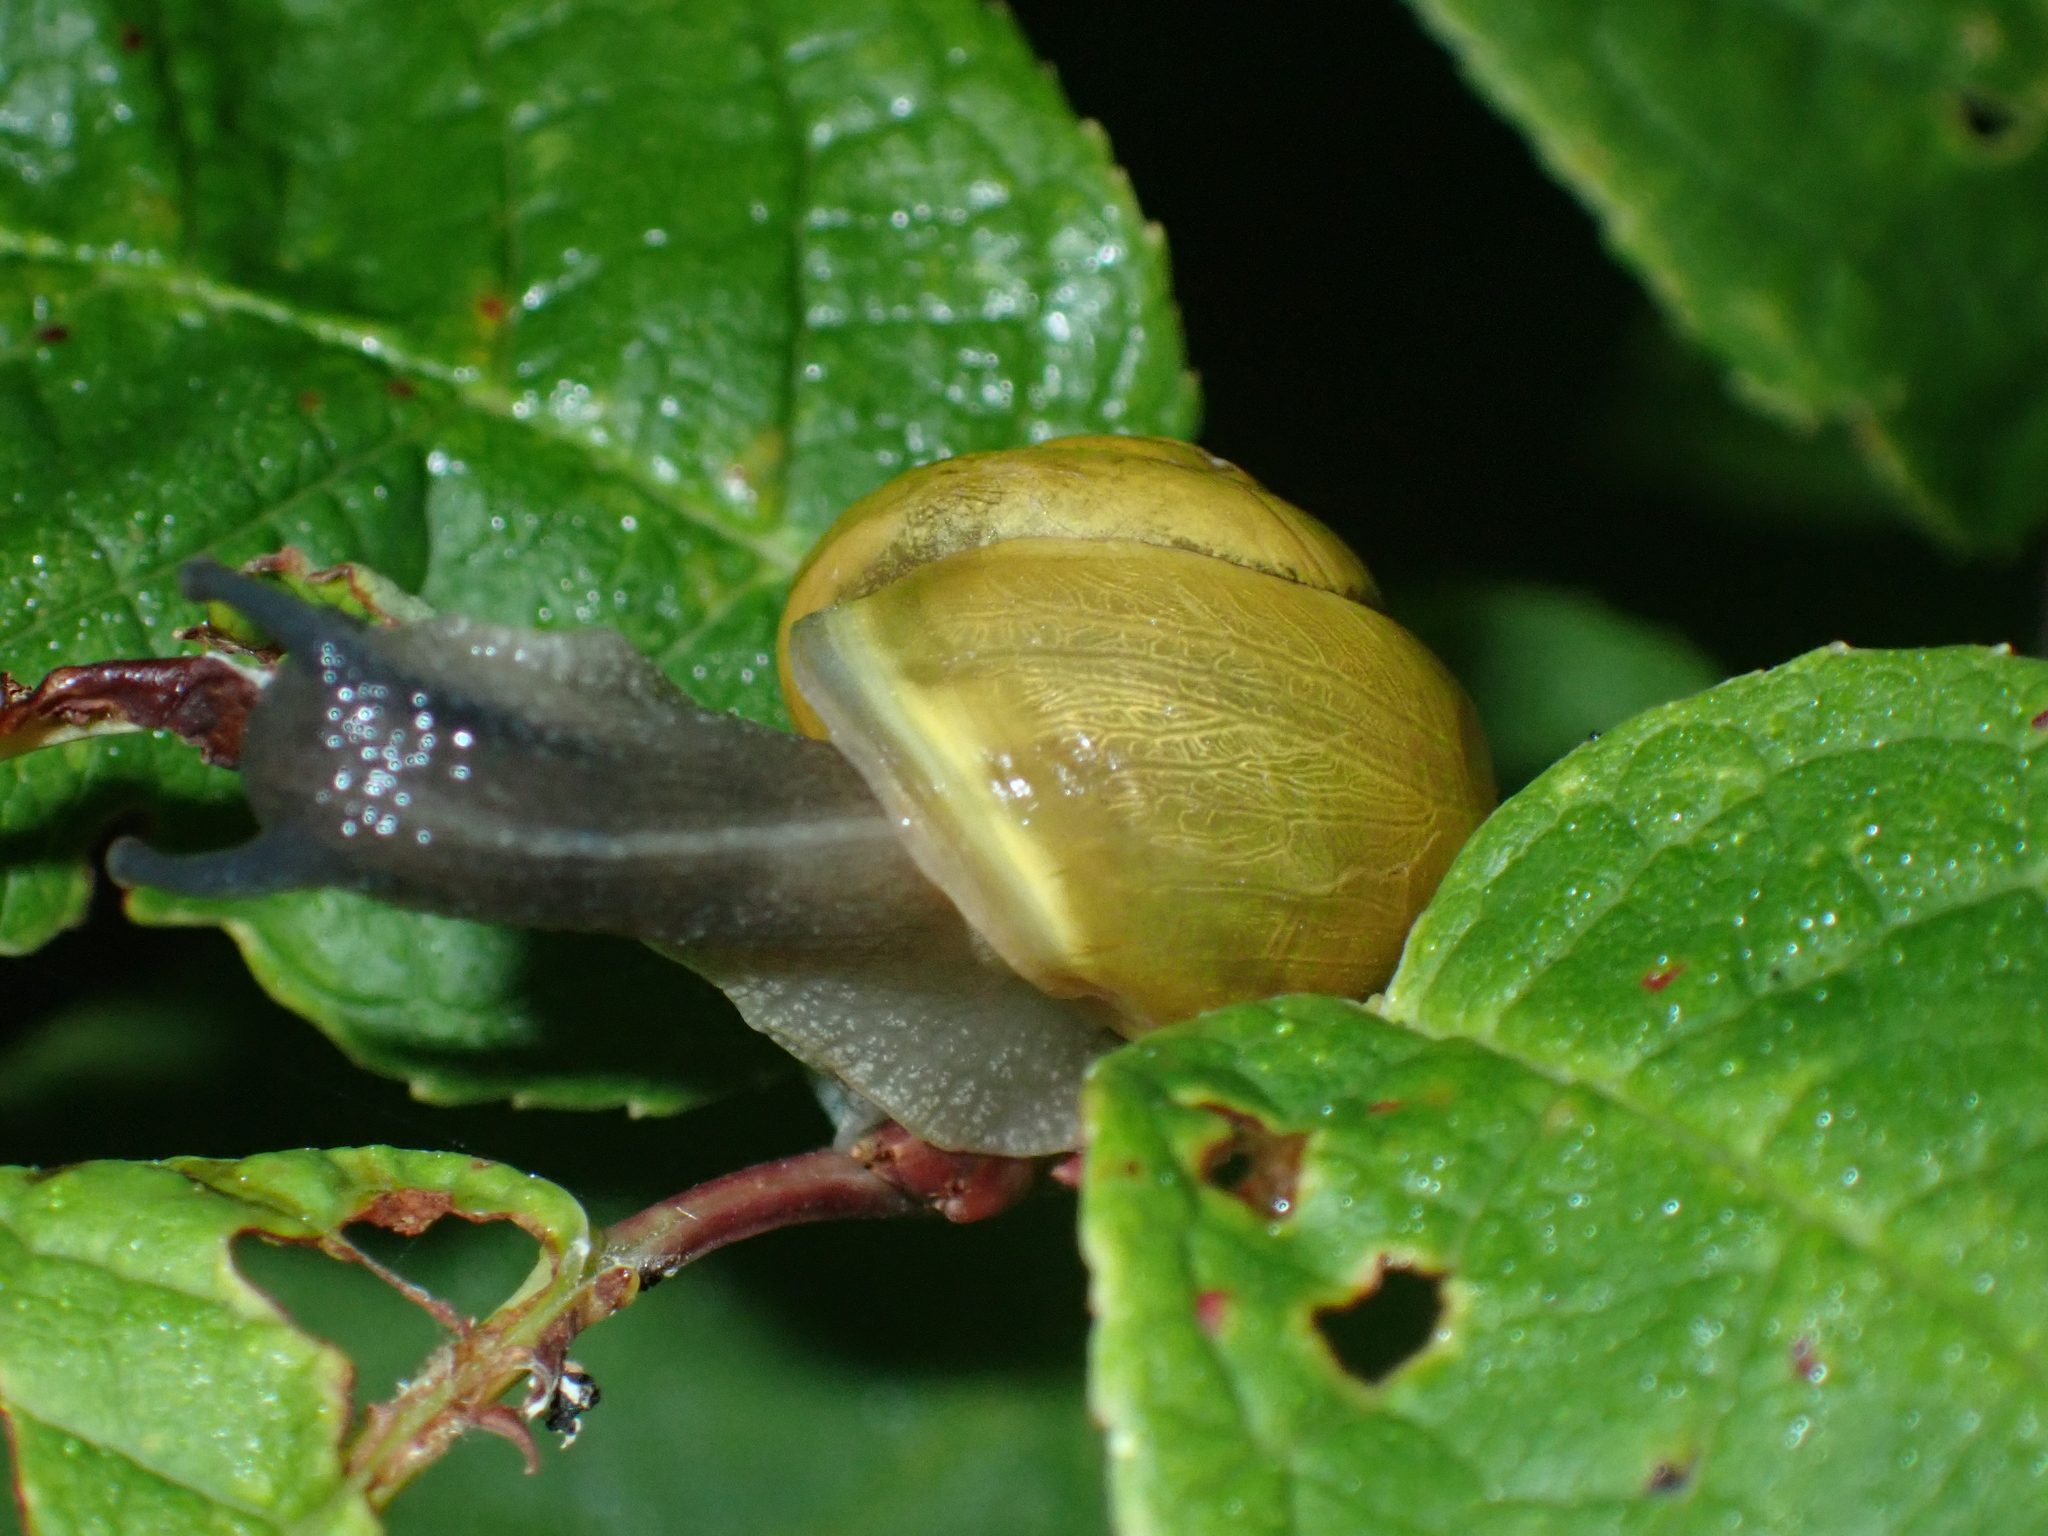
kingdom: Animalia
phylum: Mollusca
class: Gastropoda
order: Stylommatophora
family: Helicidae
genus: Cepaea
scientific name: Cepaea hortensis
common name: White-lip gardensnail
